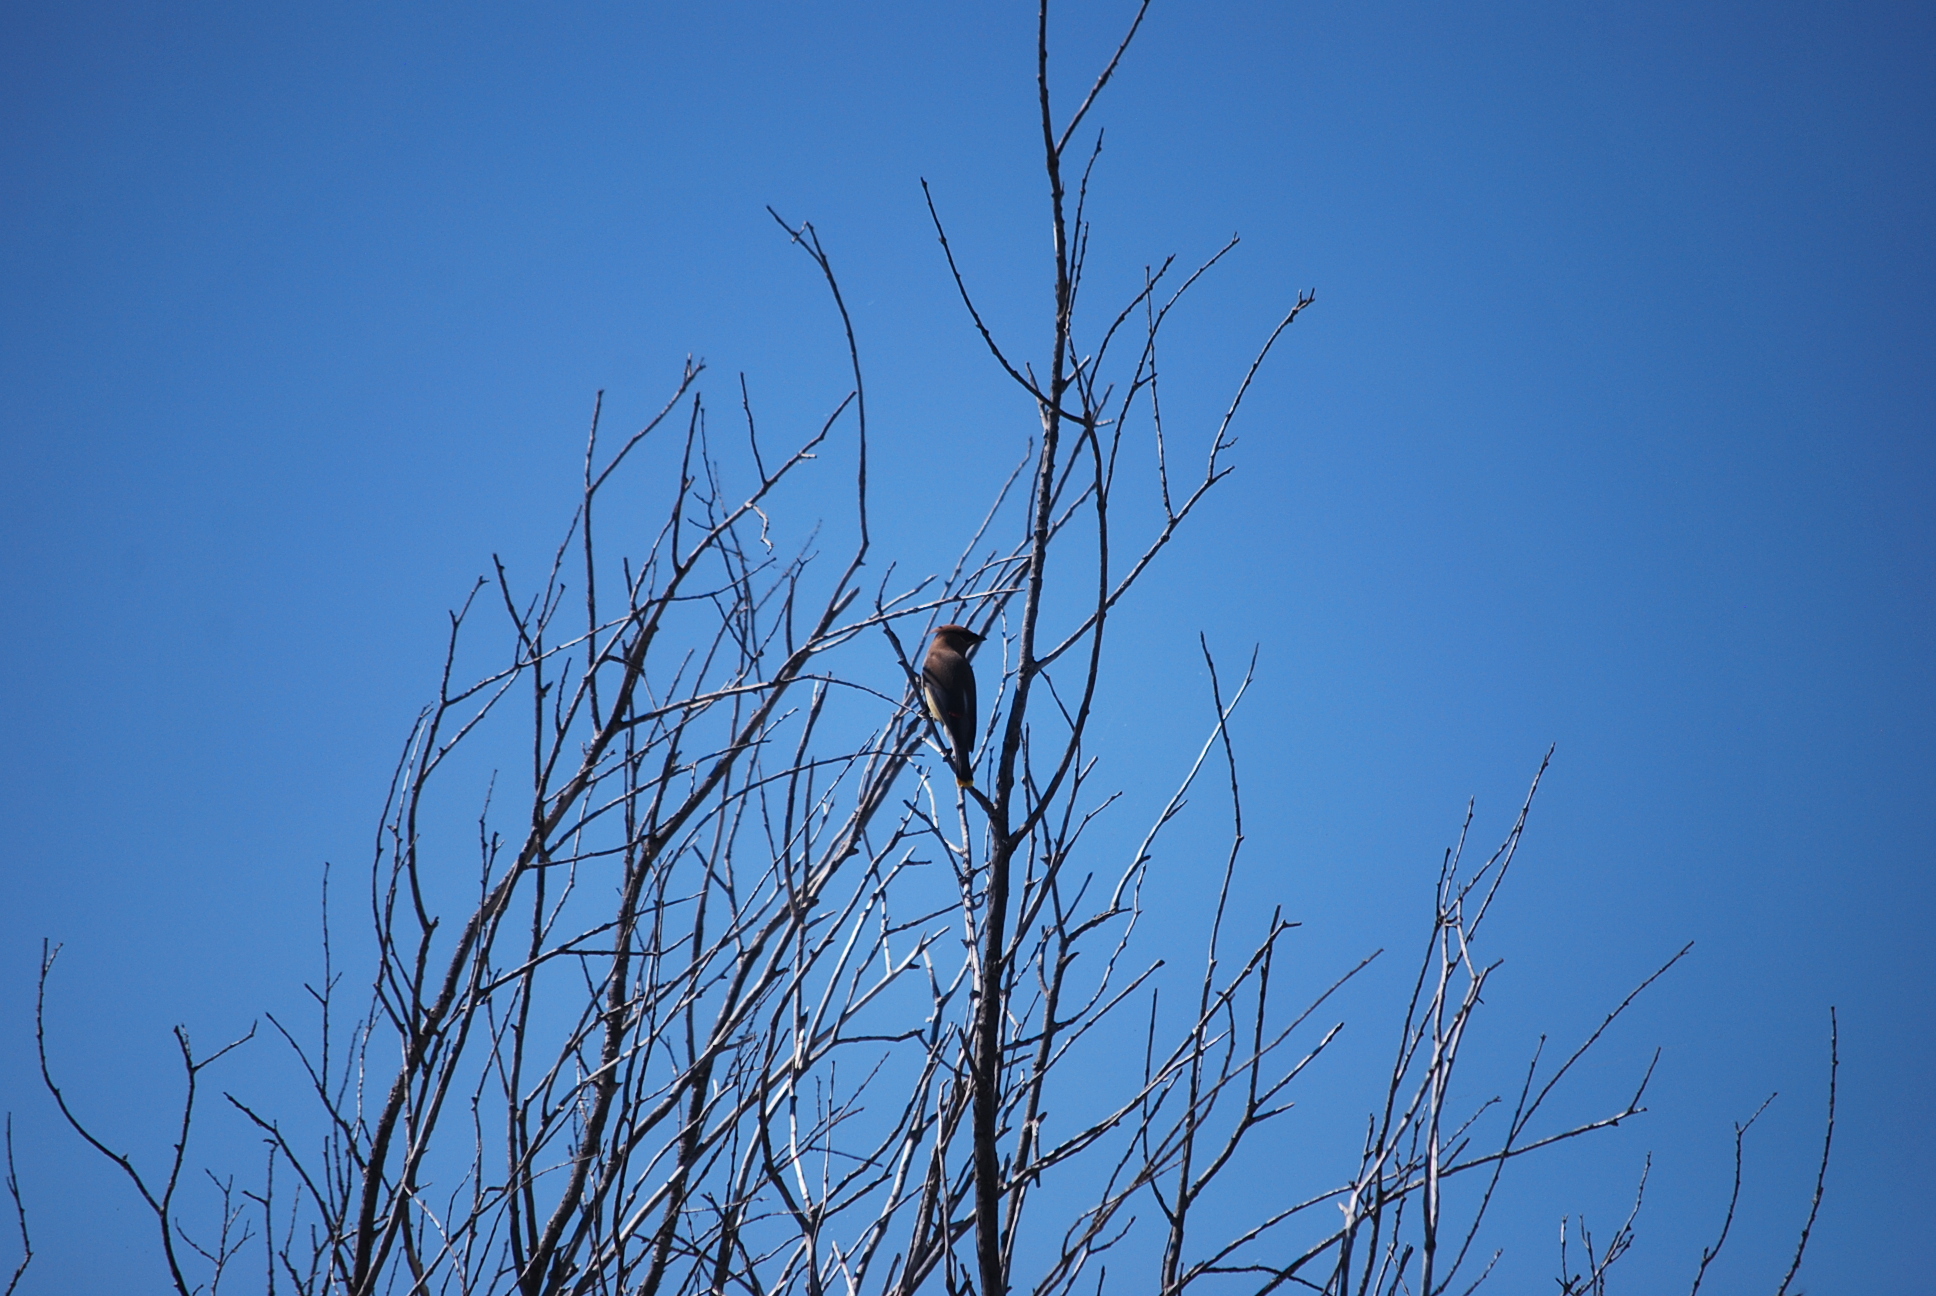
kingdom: Animalia
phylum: Chordata
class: Aves
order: Passeriformes
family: Bombycillidae
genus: Bombycilla
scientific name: Bombycilla cedrorum
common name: Cedar waxwing
